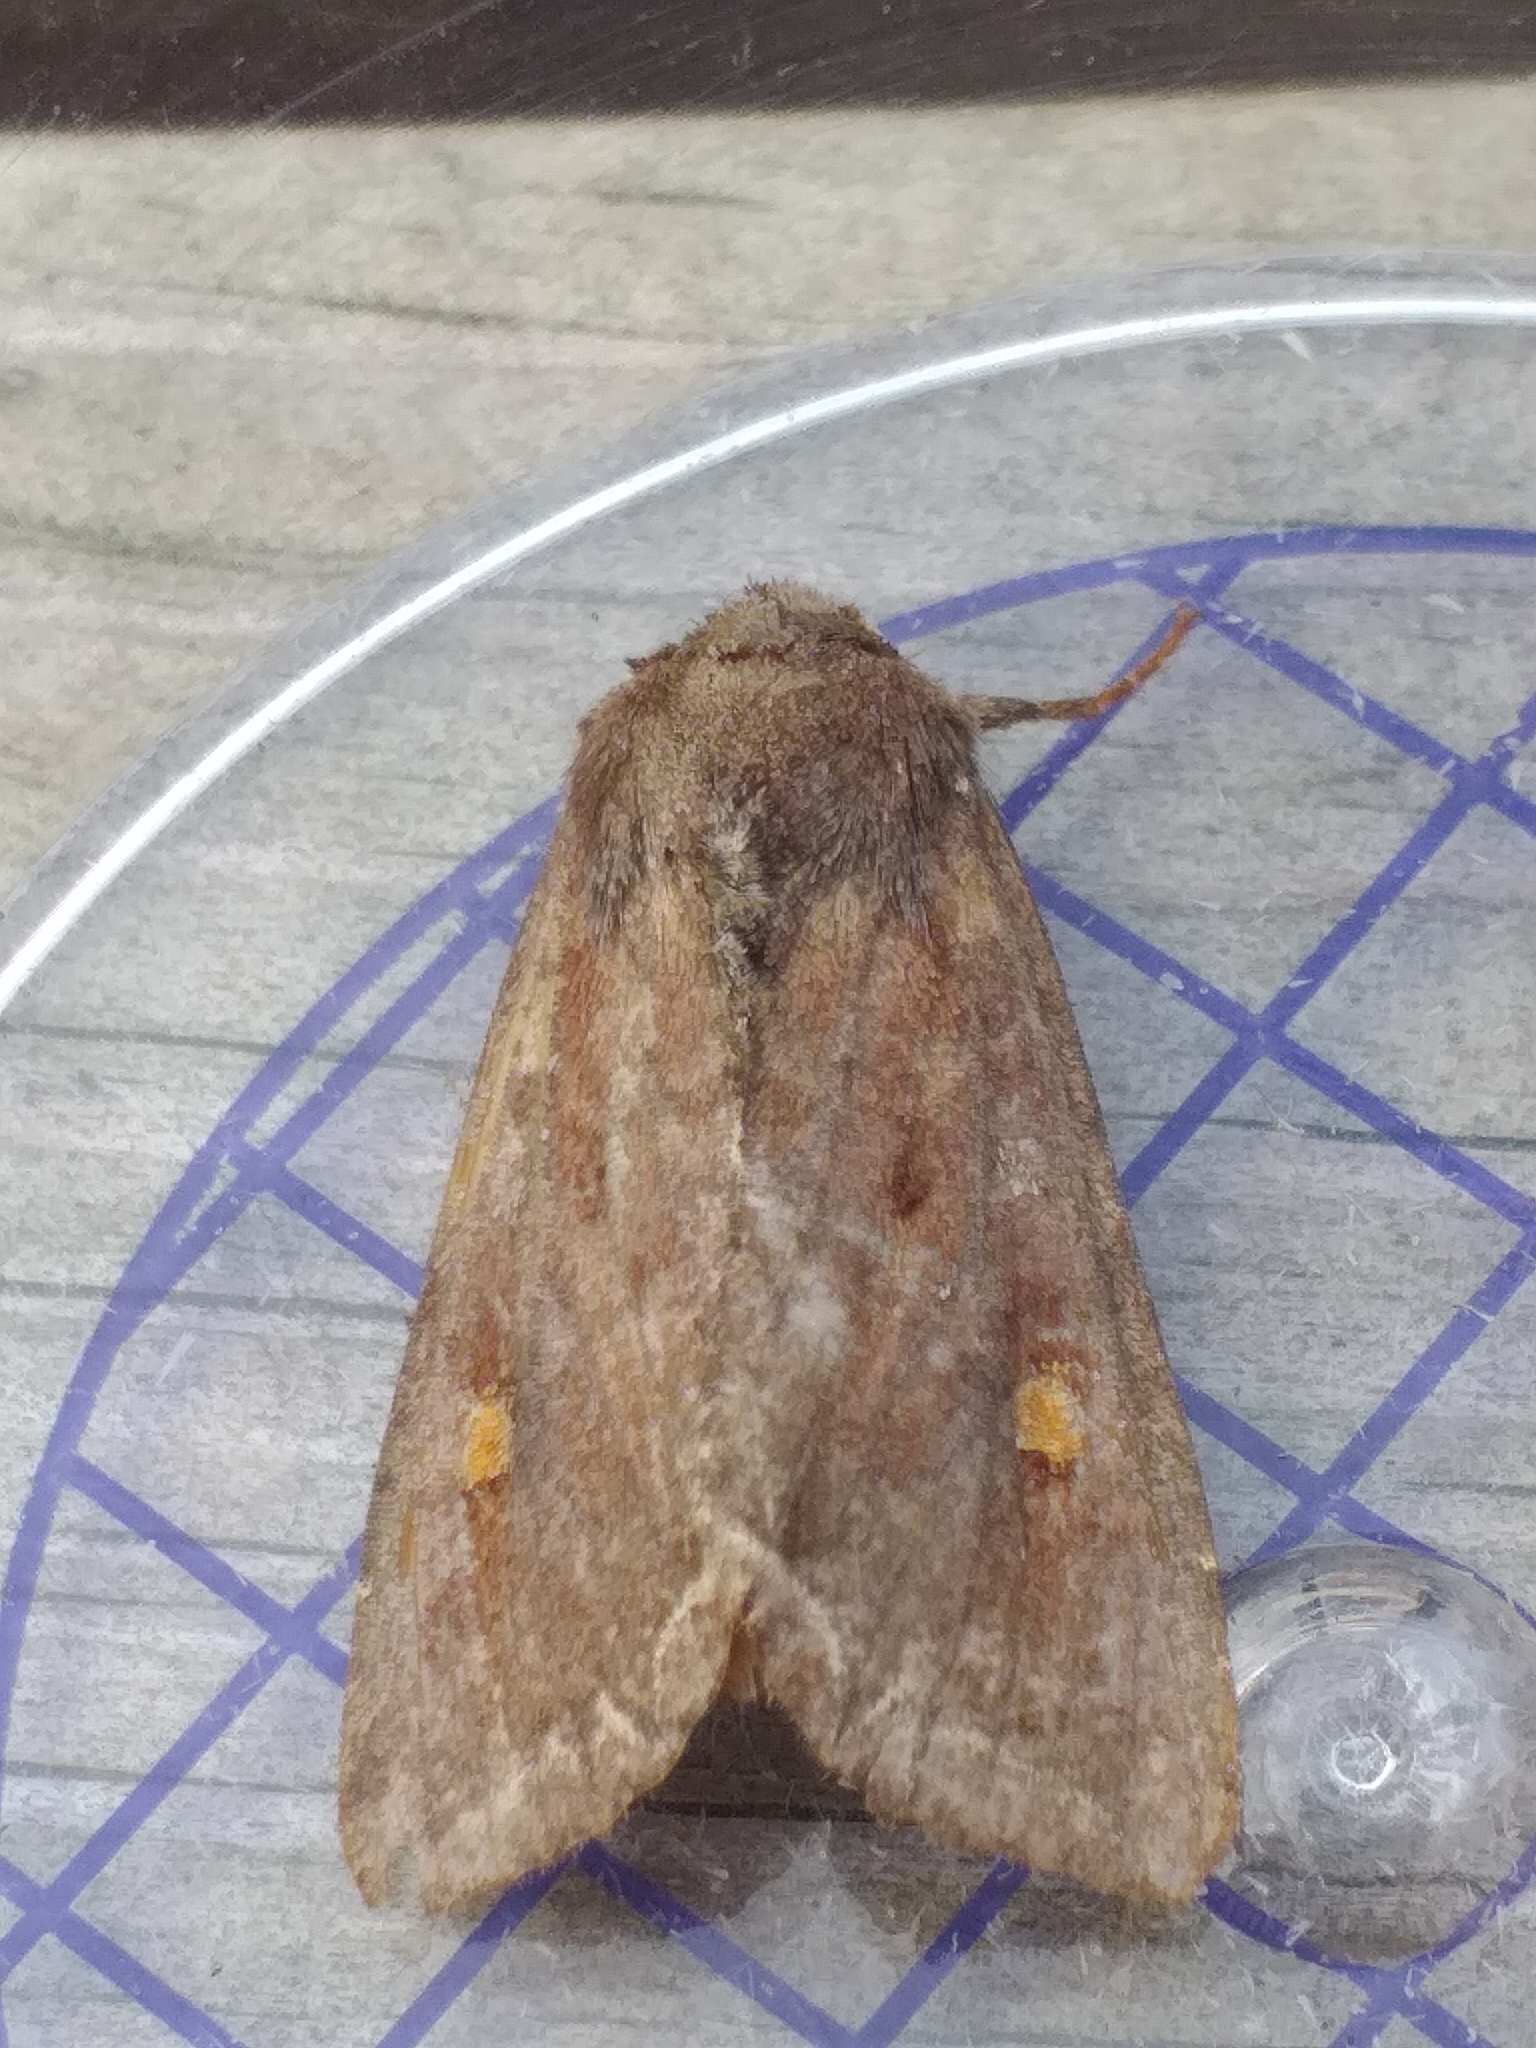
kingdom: Animalia
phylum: Arthropoda
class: Insecta
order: Lepidoptera
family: Noctuidae
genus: Lacanobia
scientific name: Lacanobia oleracea
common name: Bright-line brown-eye
